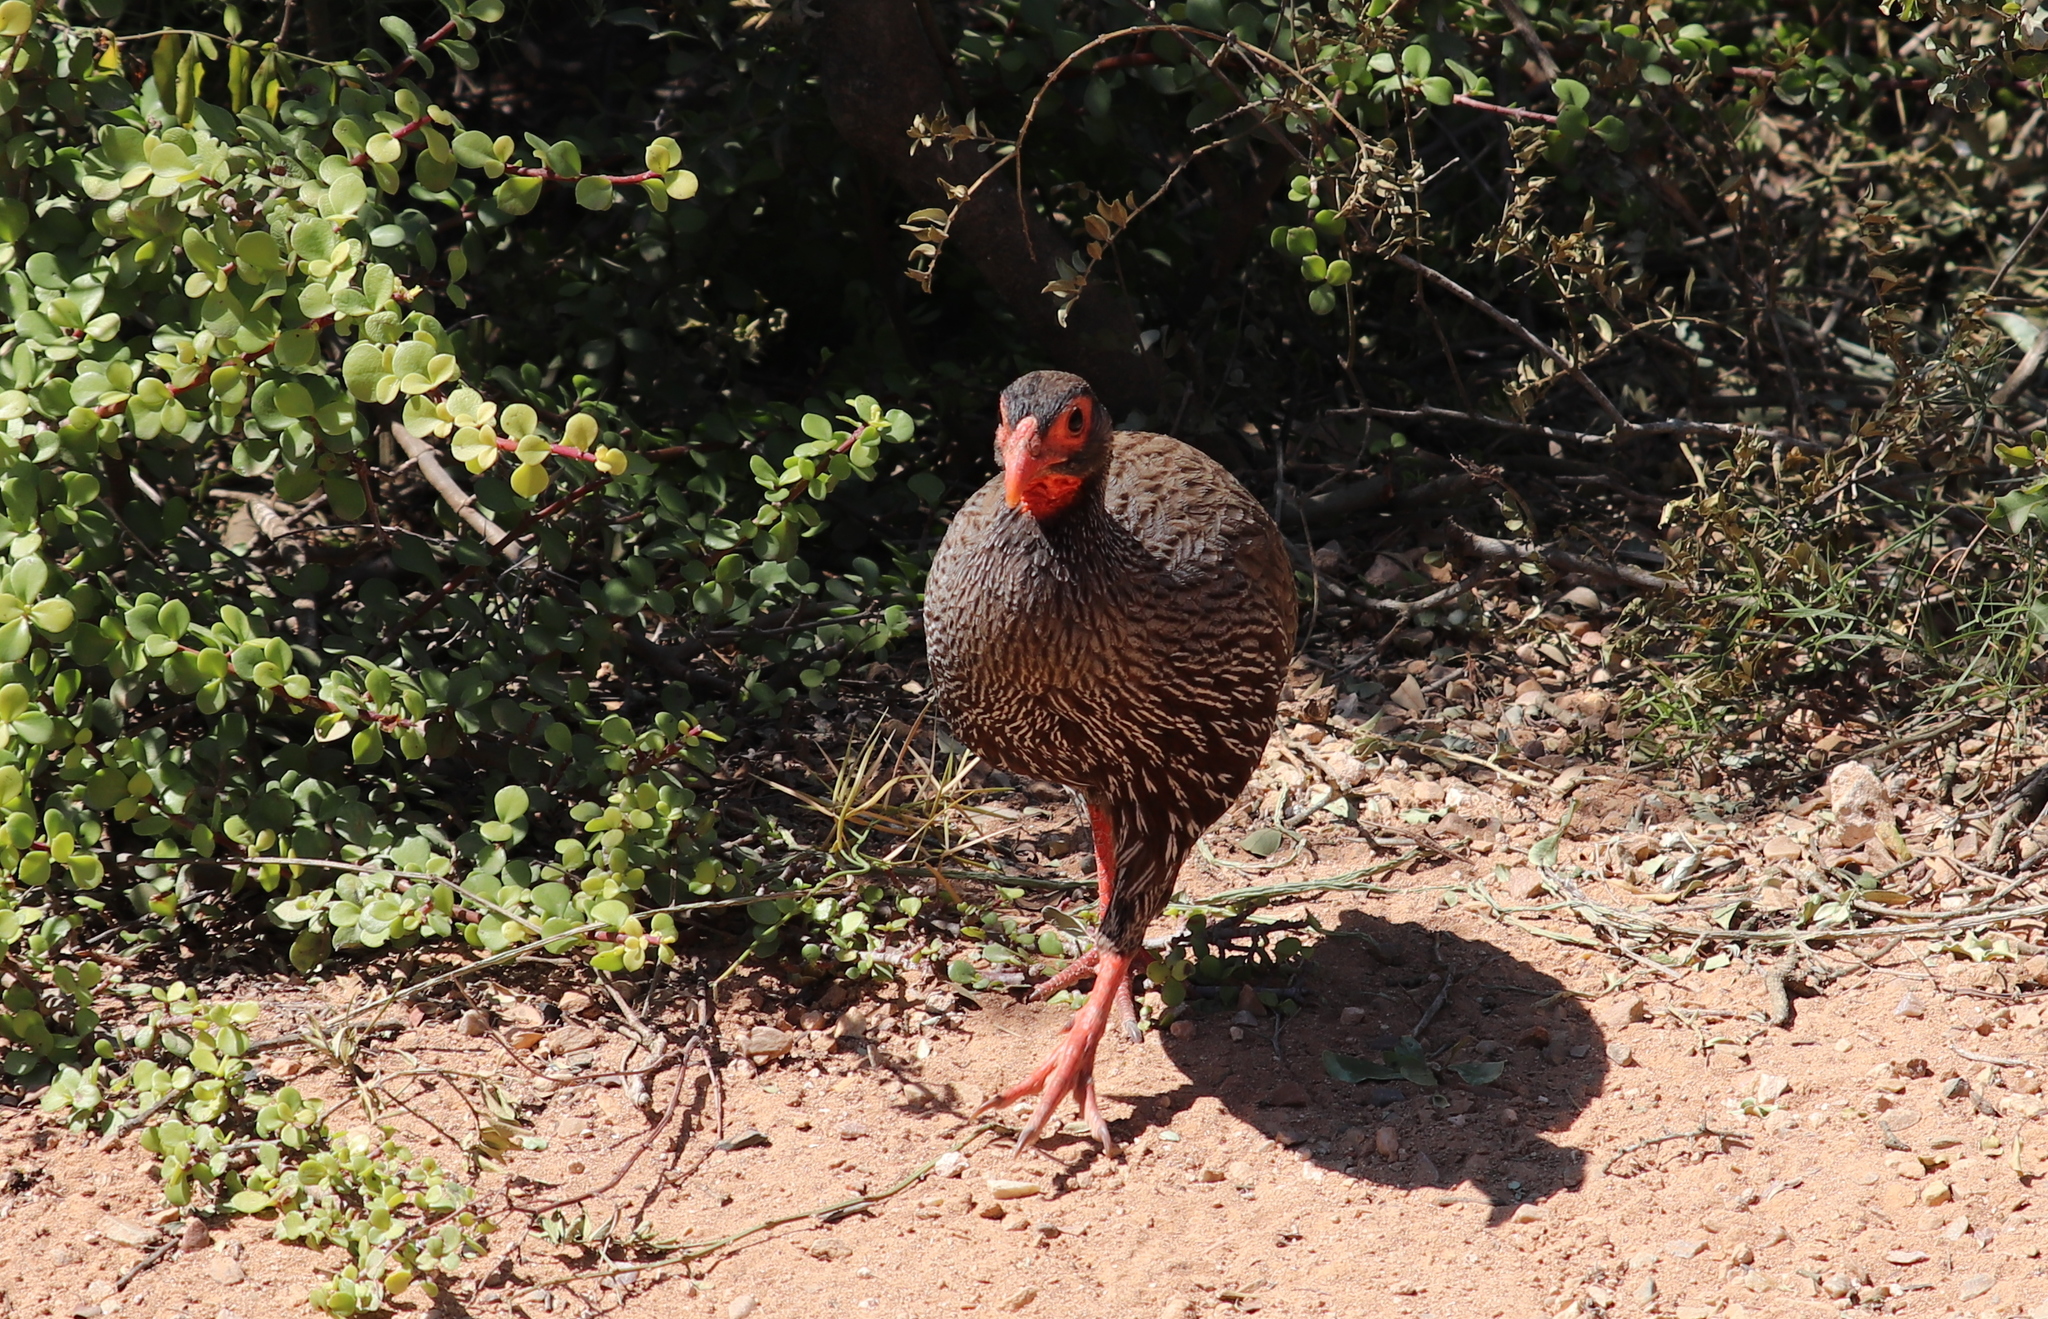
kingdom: Animalia
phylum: Chordata
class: Aves
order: Galliformes
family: Phasianidae
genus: Pternistis
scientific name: Pternistis afer
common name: Red-necked spurfowl
